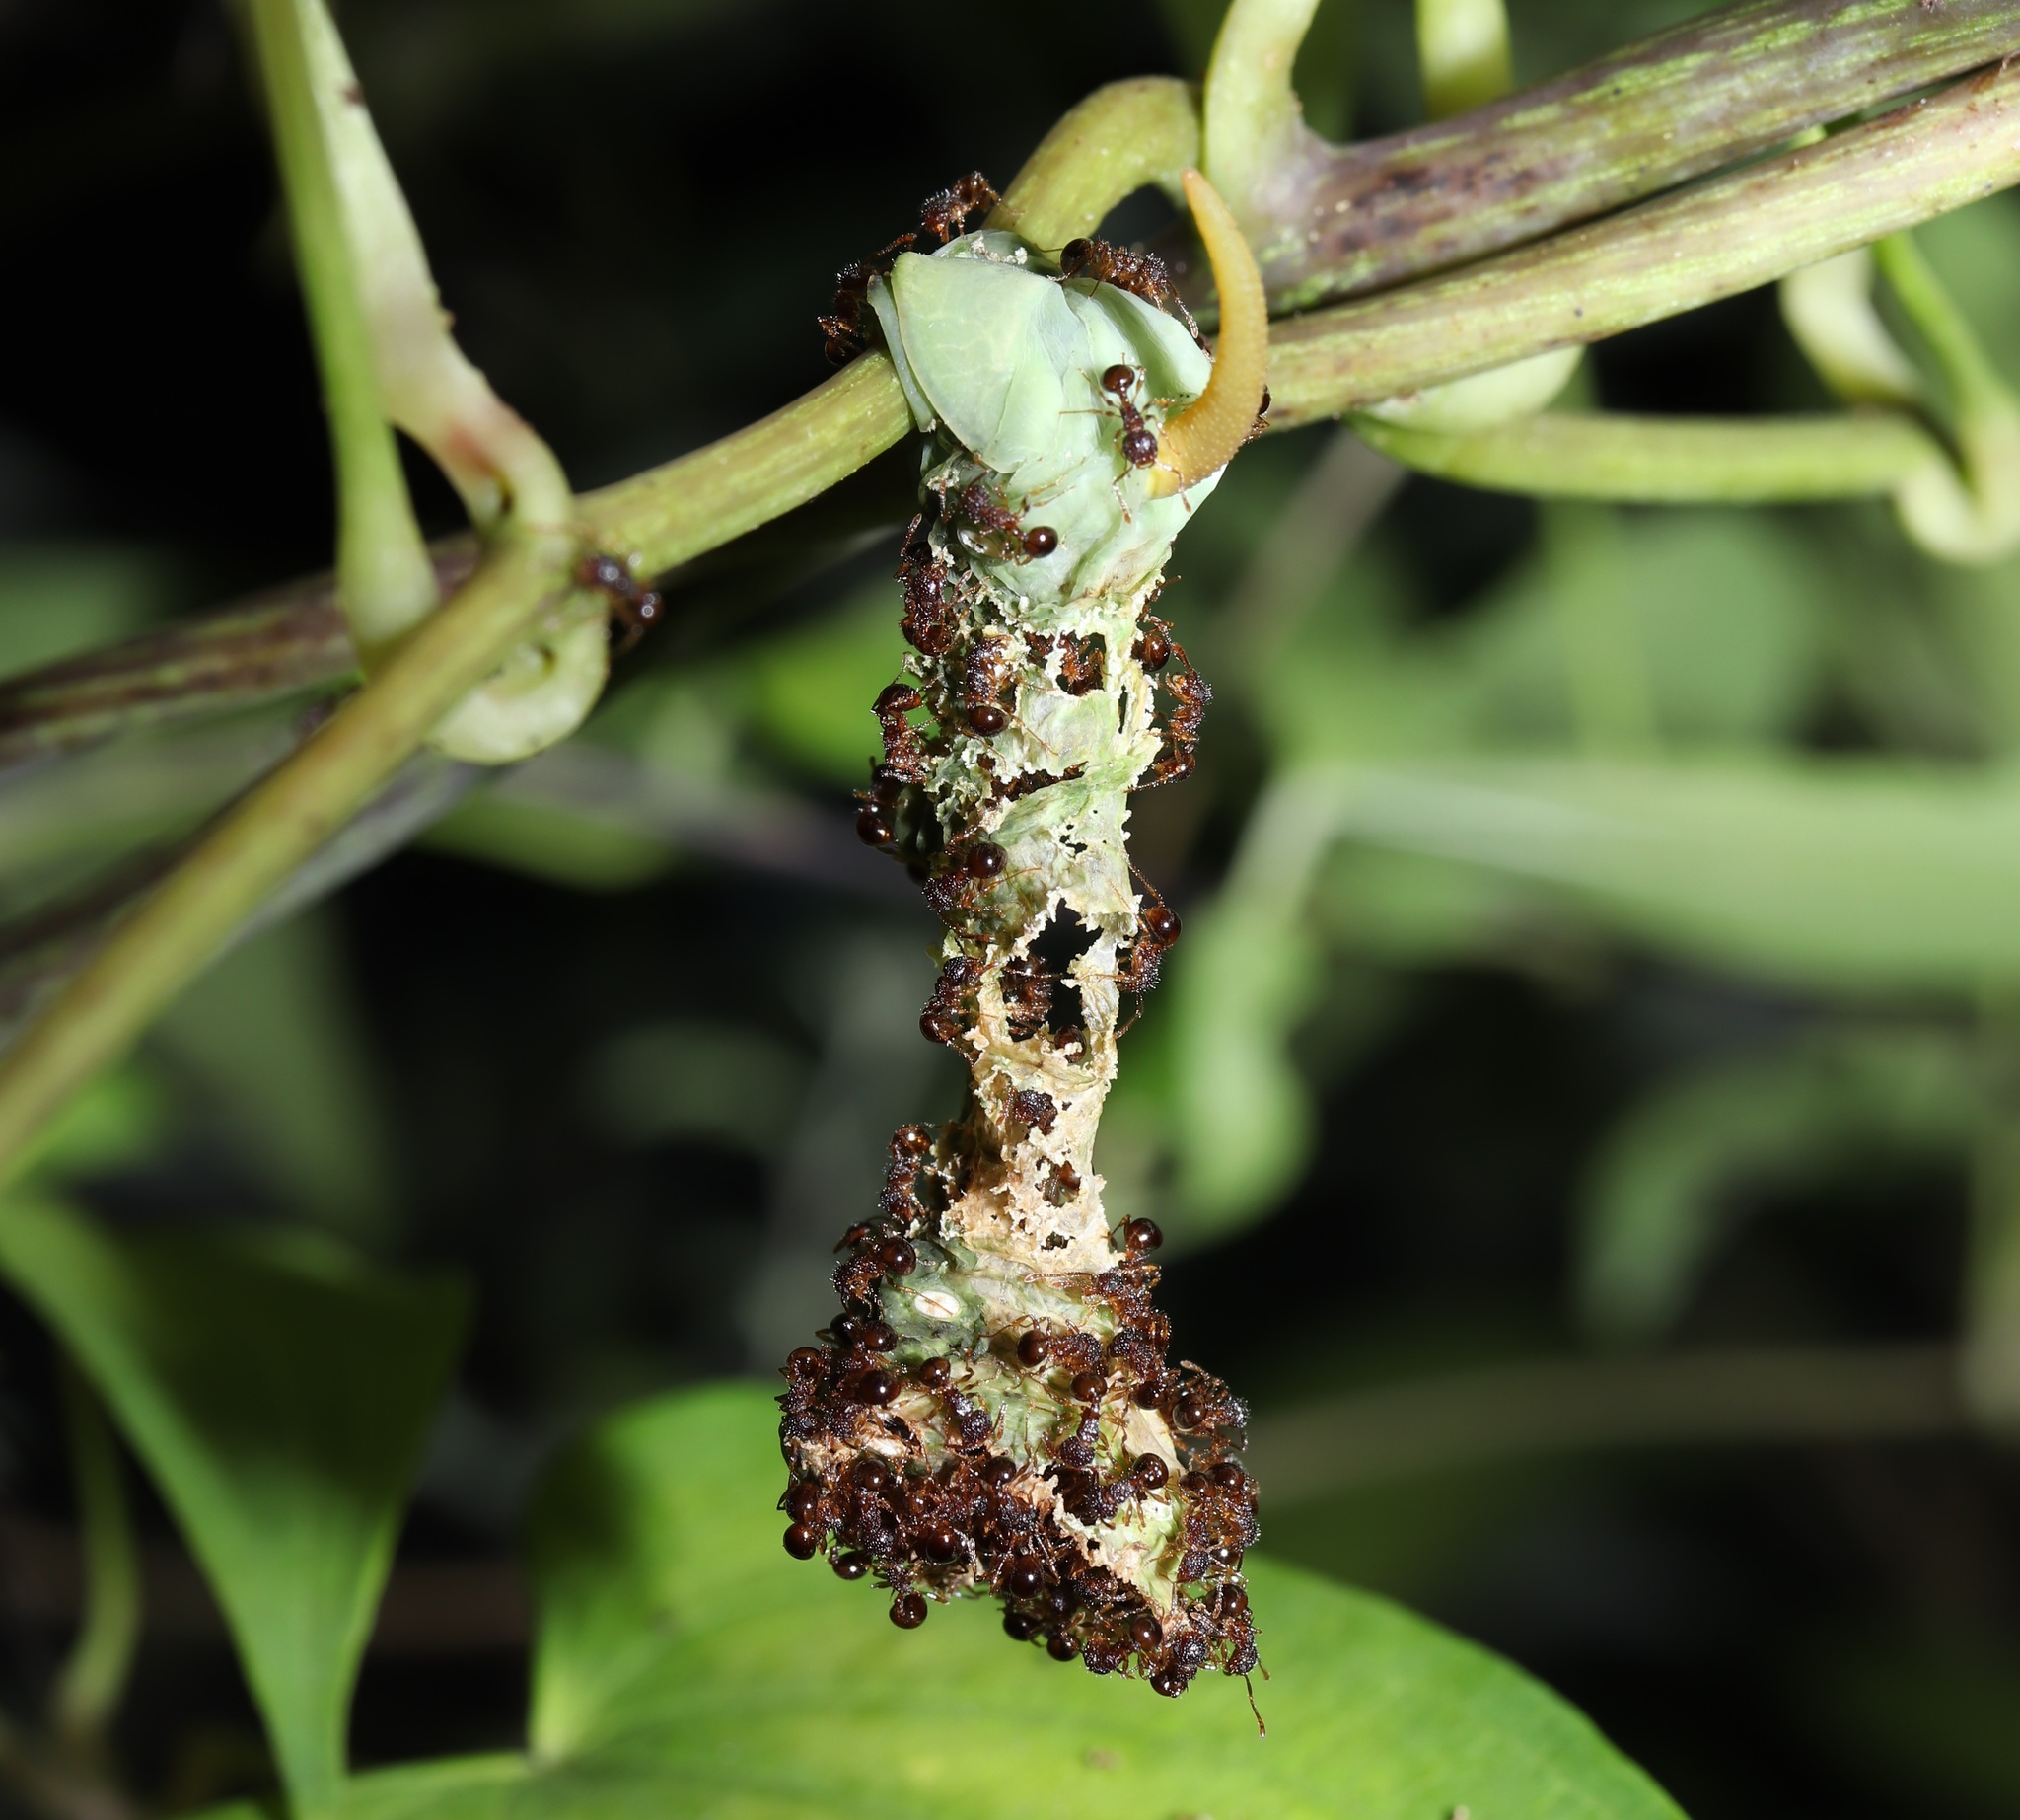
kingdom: Animalia
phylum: Arthropoda
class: Insecta
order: Hymenoptera
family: Formicidae
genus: Pristomyrmex
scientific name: Pristomyrmex punctatus
